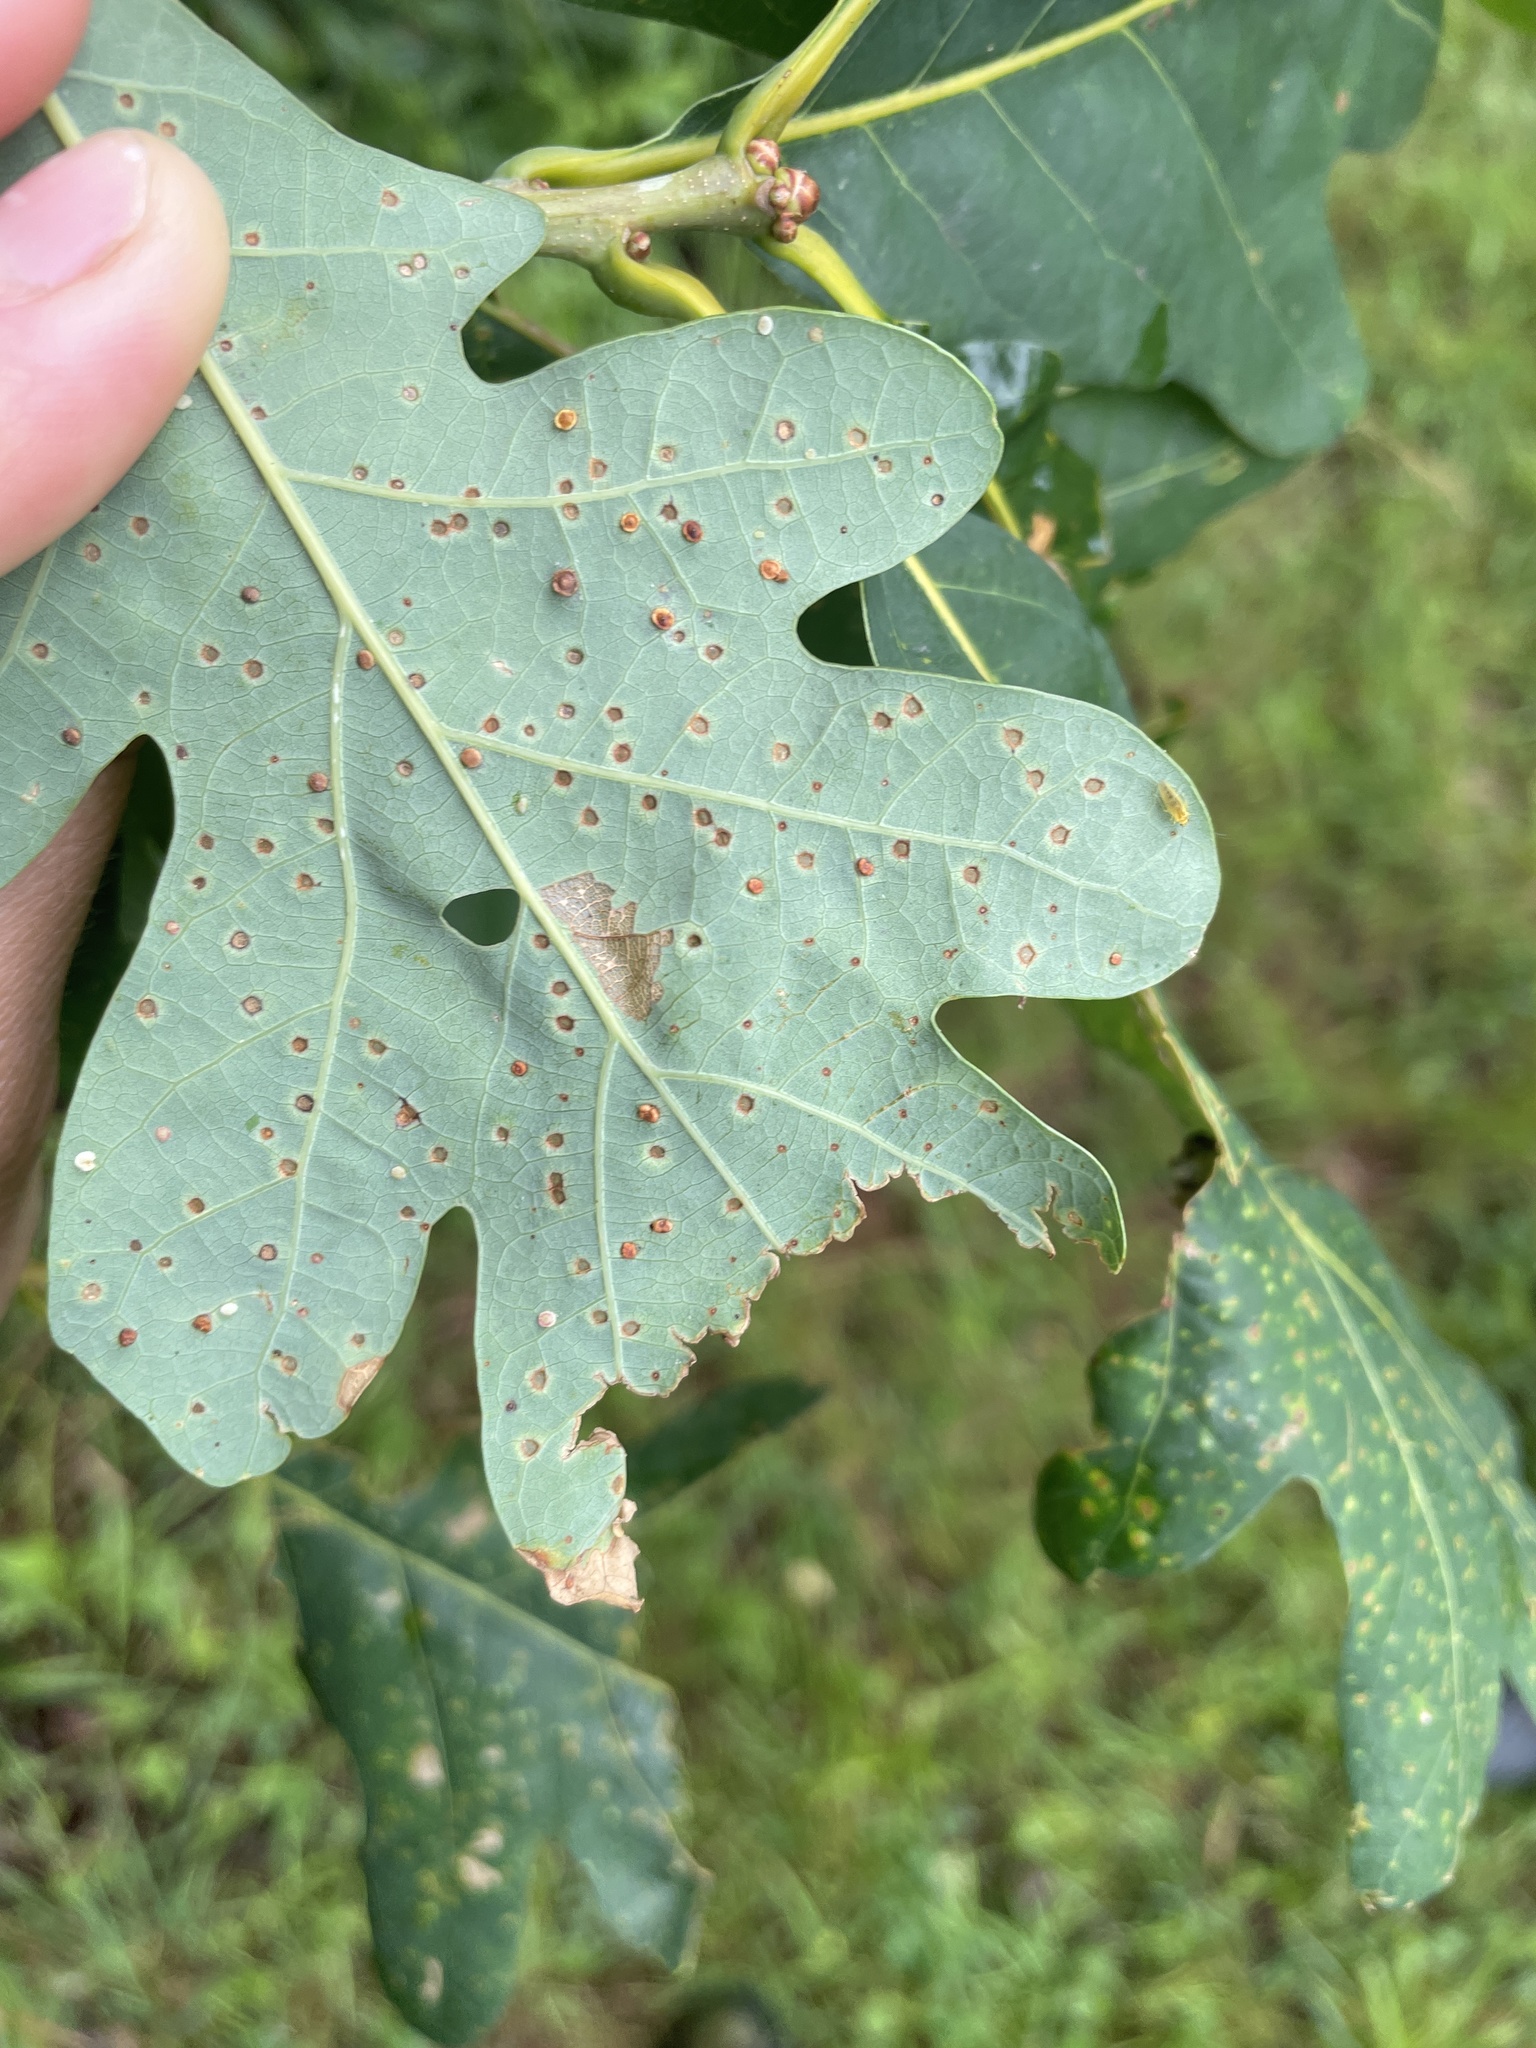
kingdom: Animalia
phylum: Arthropoda
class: Insecta
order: Hymenoptera
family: Cynipidae
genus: Neuroterus
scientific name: Neuroterus
